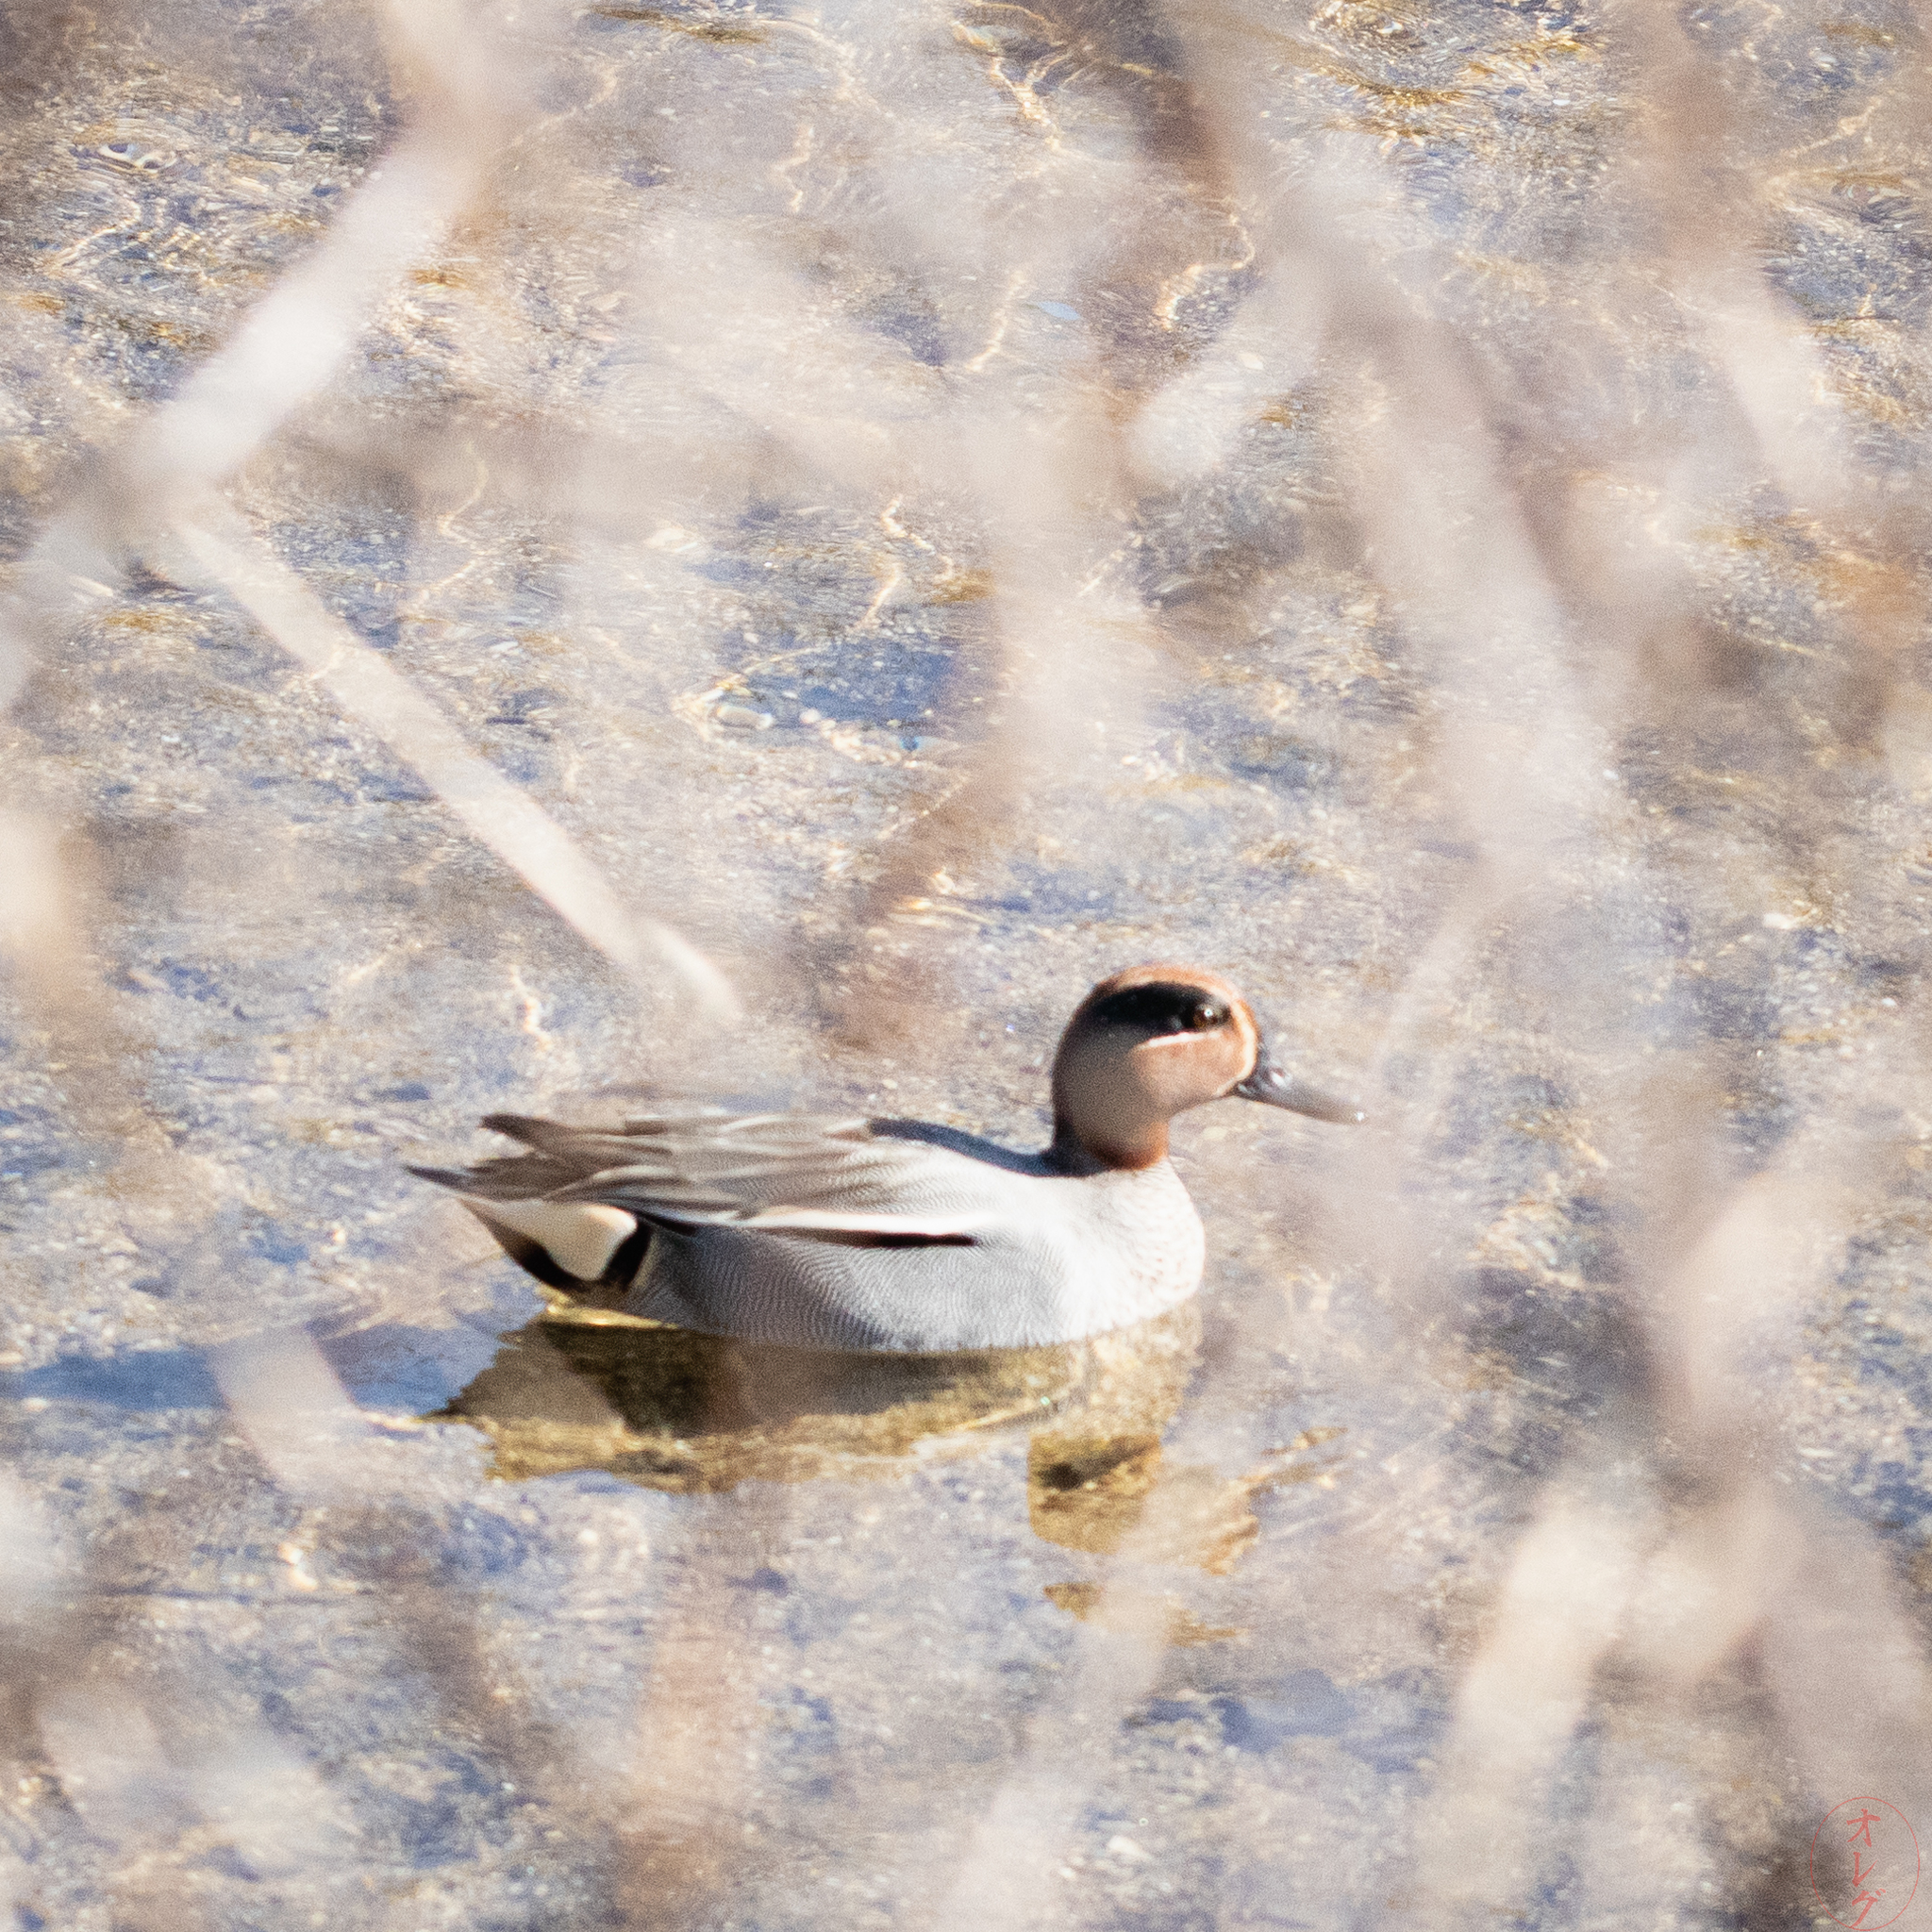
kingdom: Animalia
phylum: Chordata
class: Aves
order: Anseriformes
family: Anatidae
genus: Anas
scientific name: Anas crecca
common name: Eurasian teal
